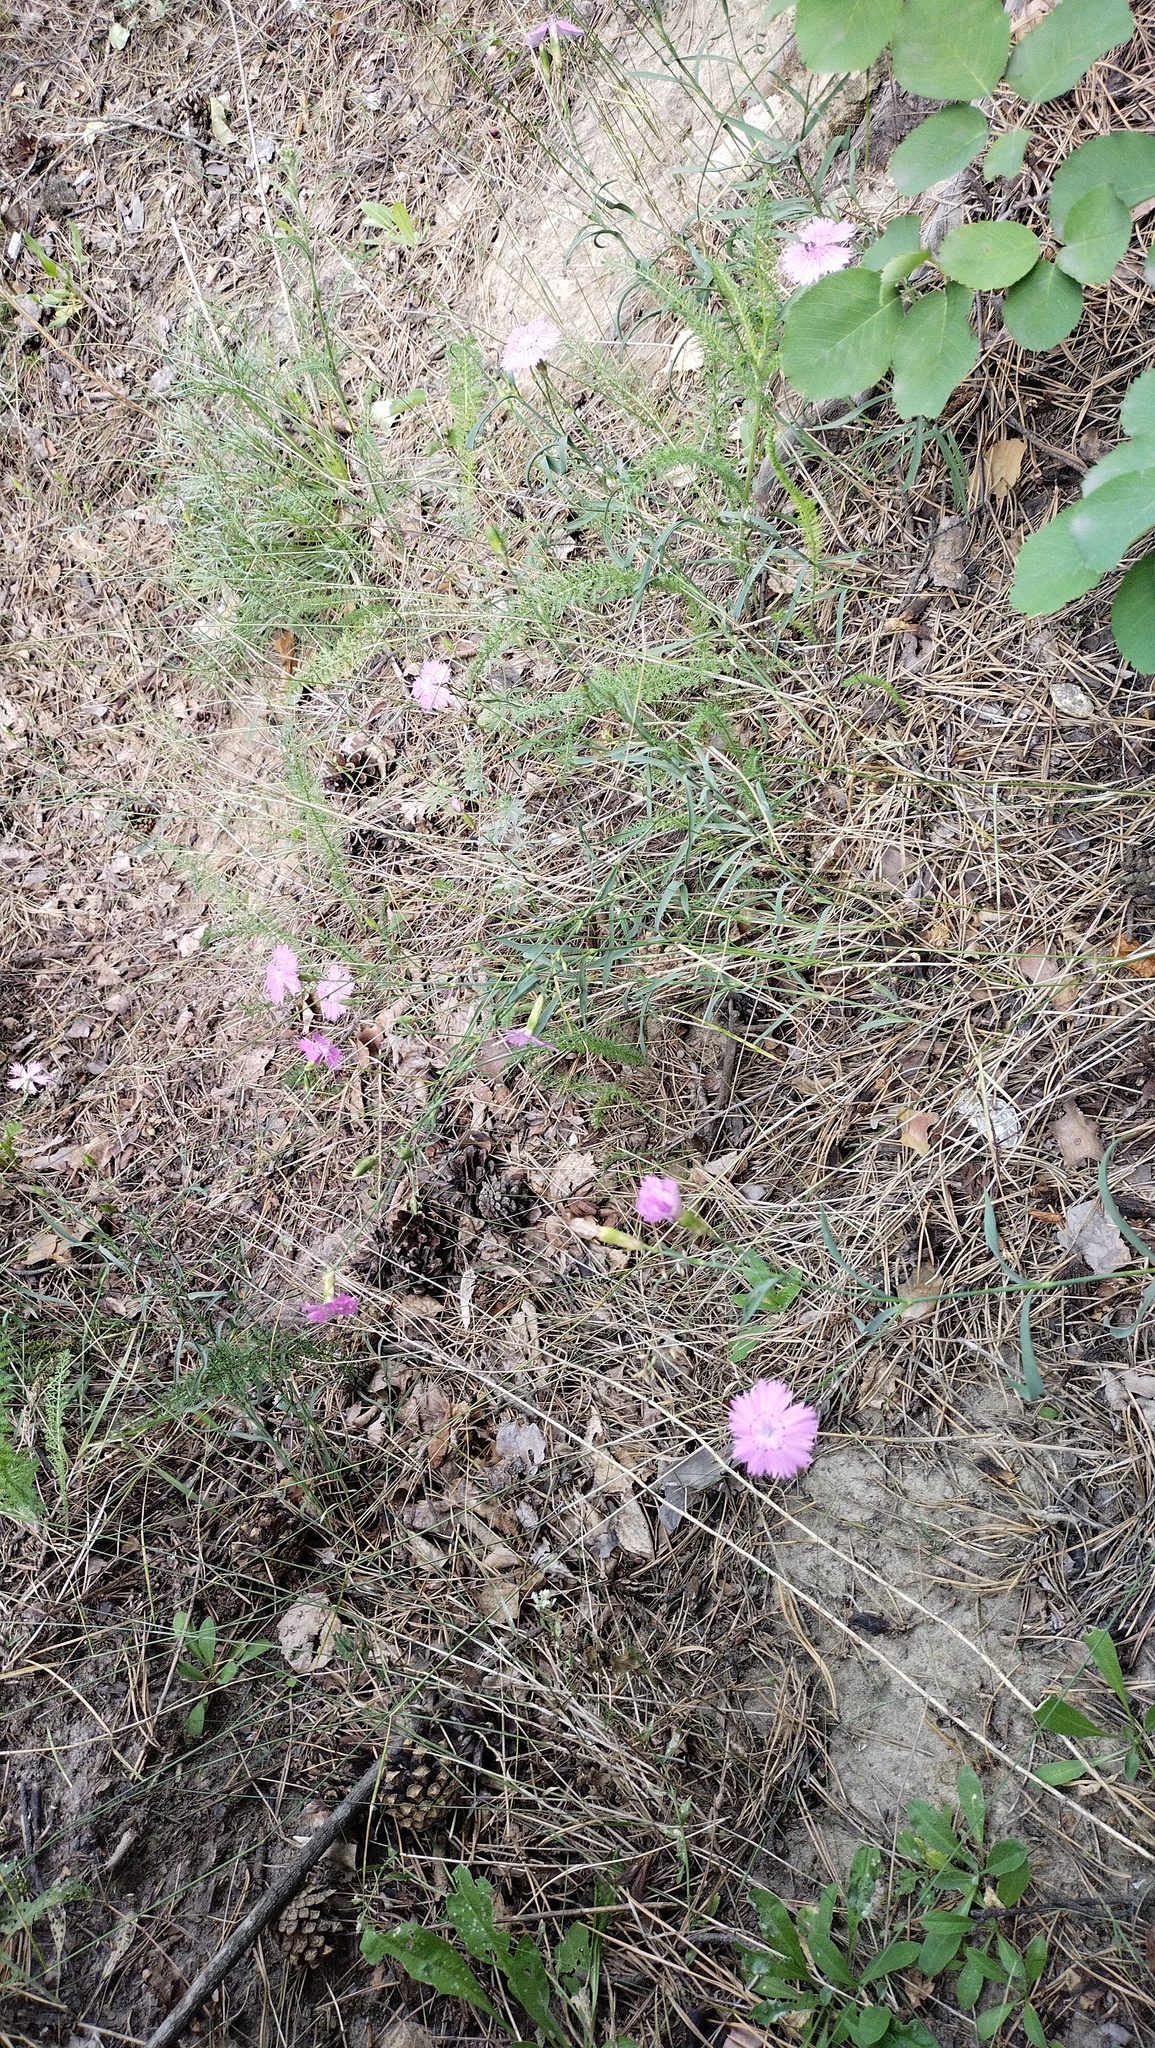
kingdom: Plantae
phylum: Tracheophyta
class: Magnoliopsida
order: Caryophyllales
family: Caryophyllaceae
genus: Dianthus
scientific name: Dianthus chinensis
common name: Rainbow pink
